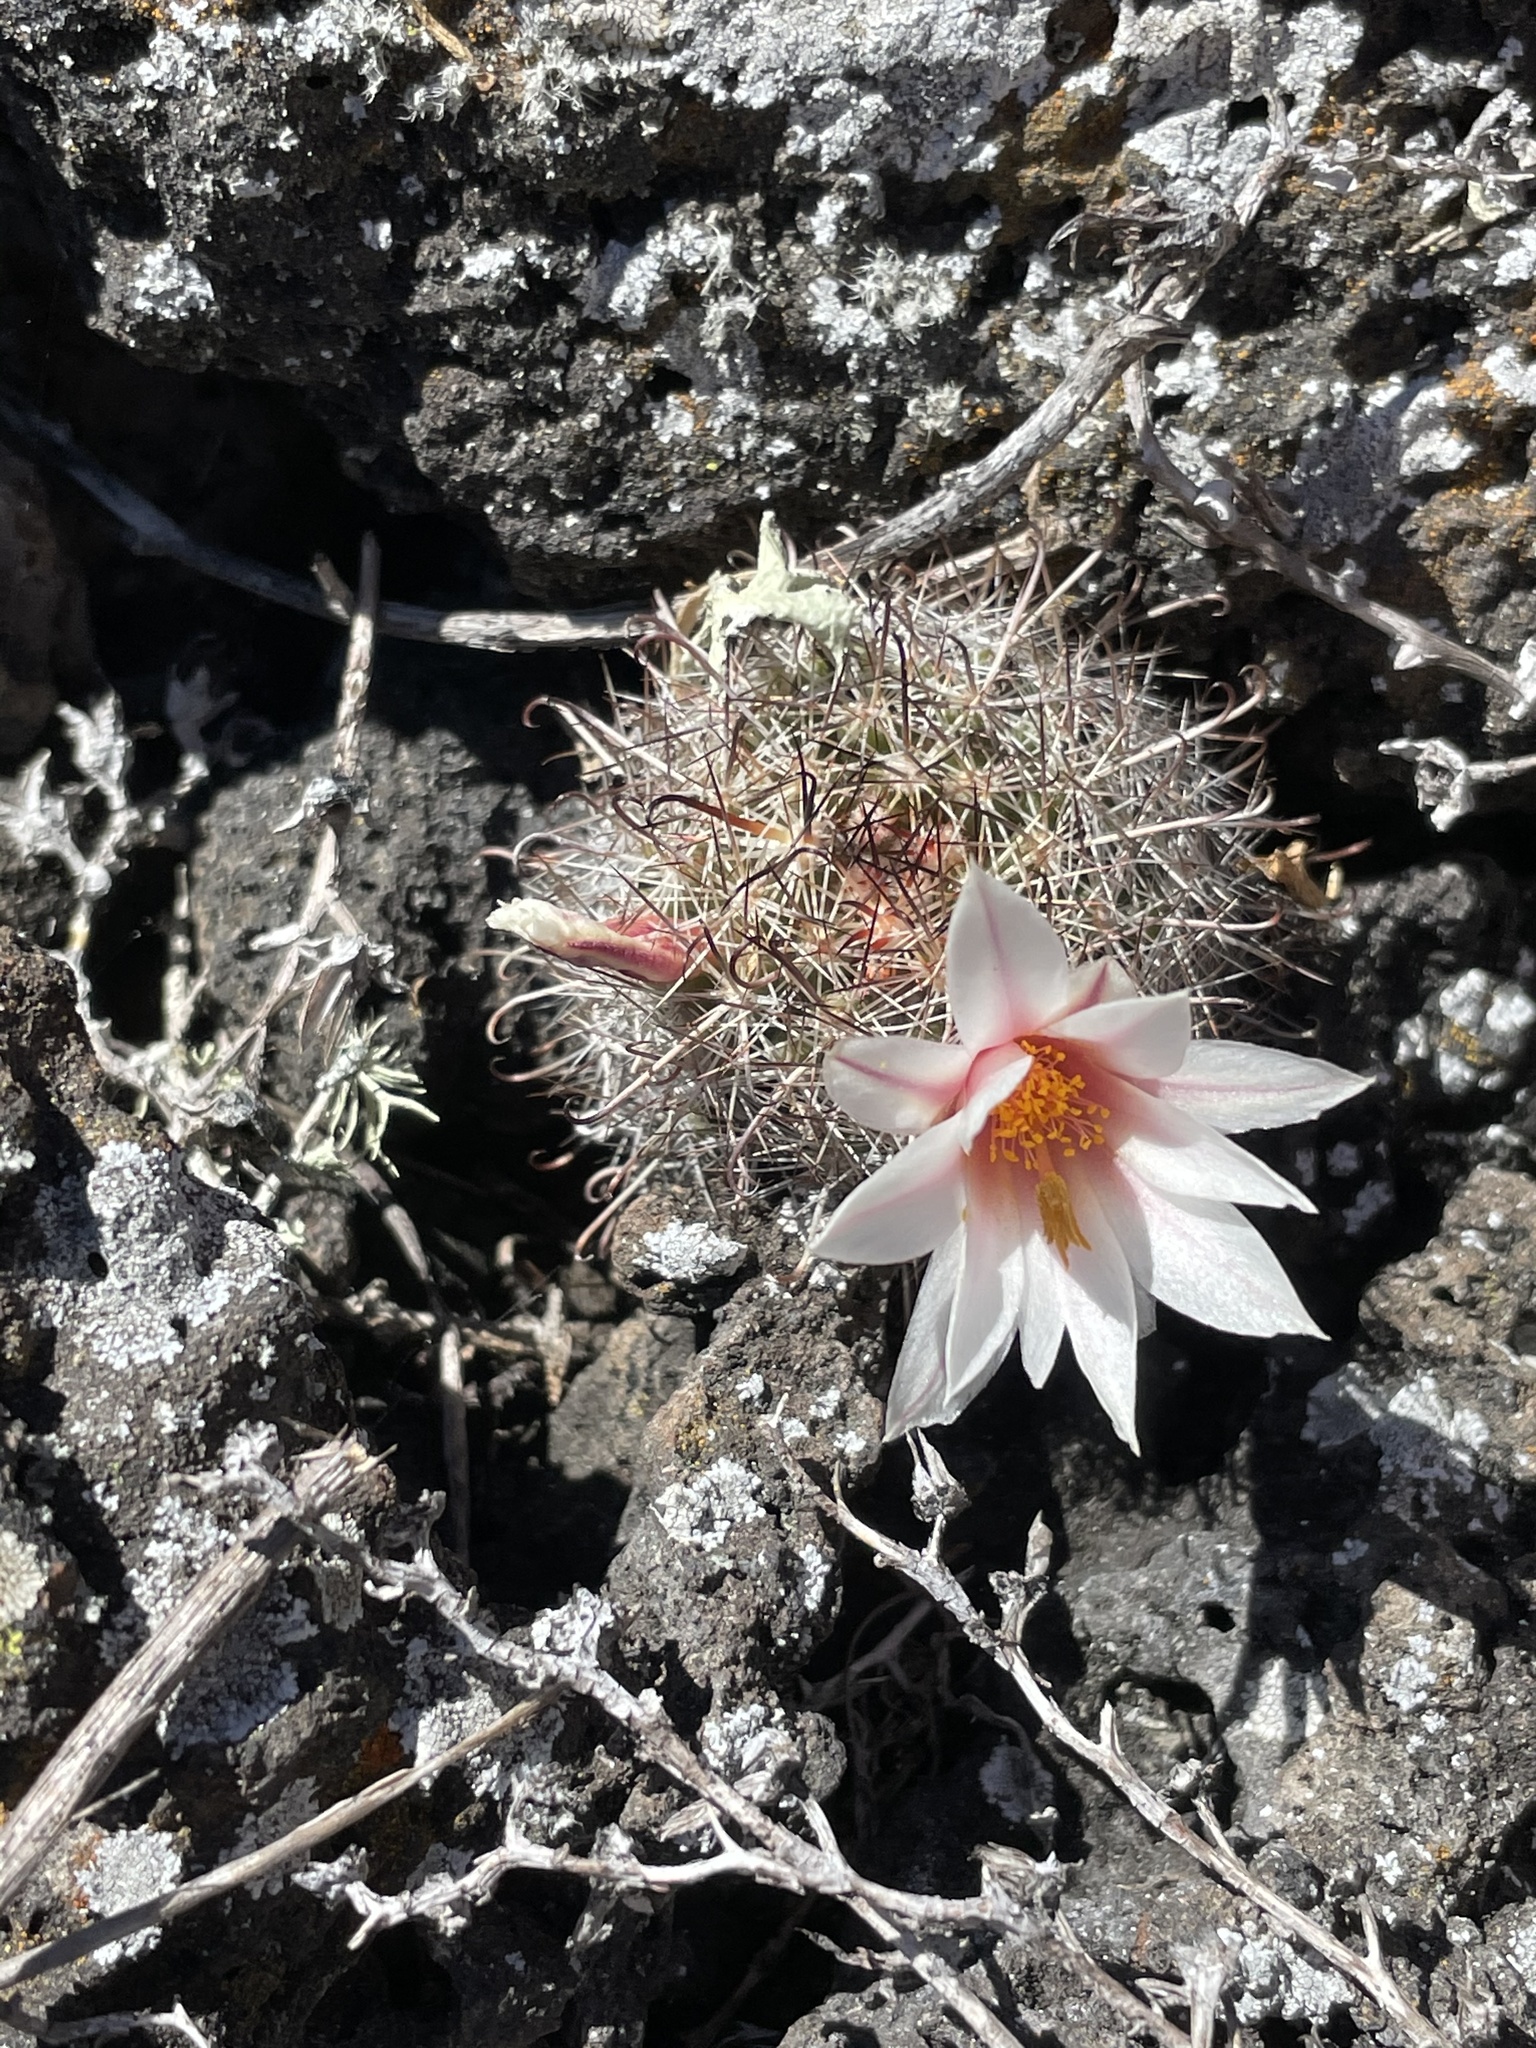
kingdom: Plantae
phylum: Tracheophyta
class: Magnoliopsida
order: Caryophyllales
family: Cactaceae
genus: Cochemiea
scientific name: Cochemiea hutchisoniana
